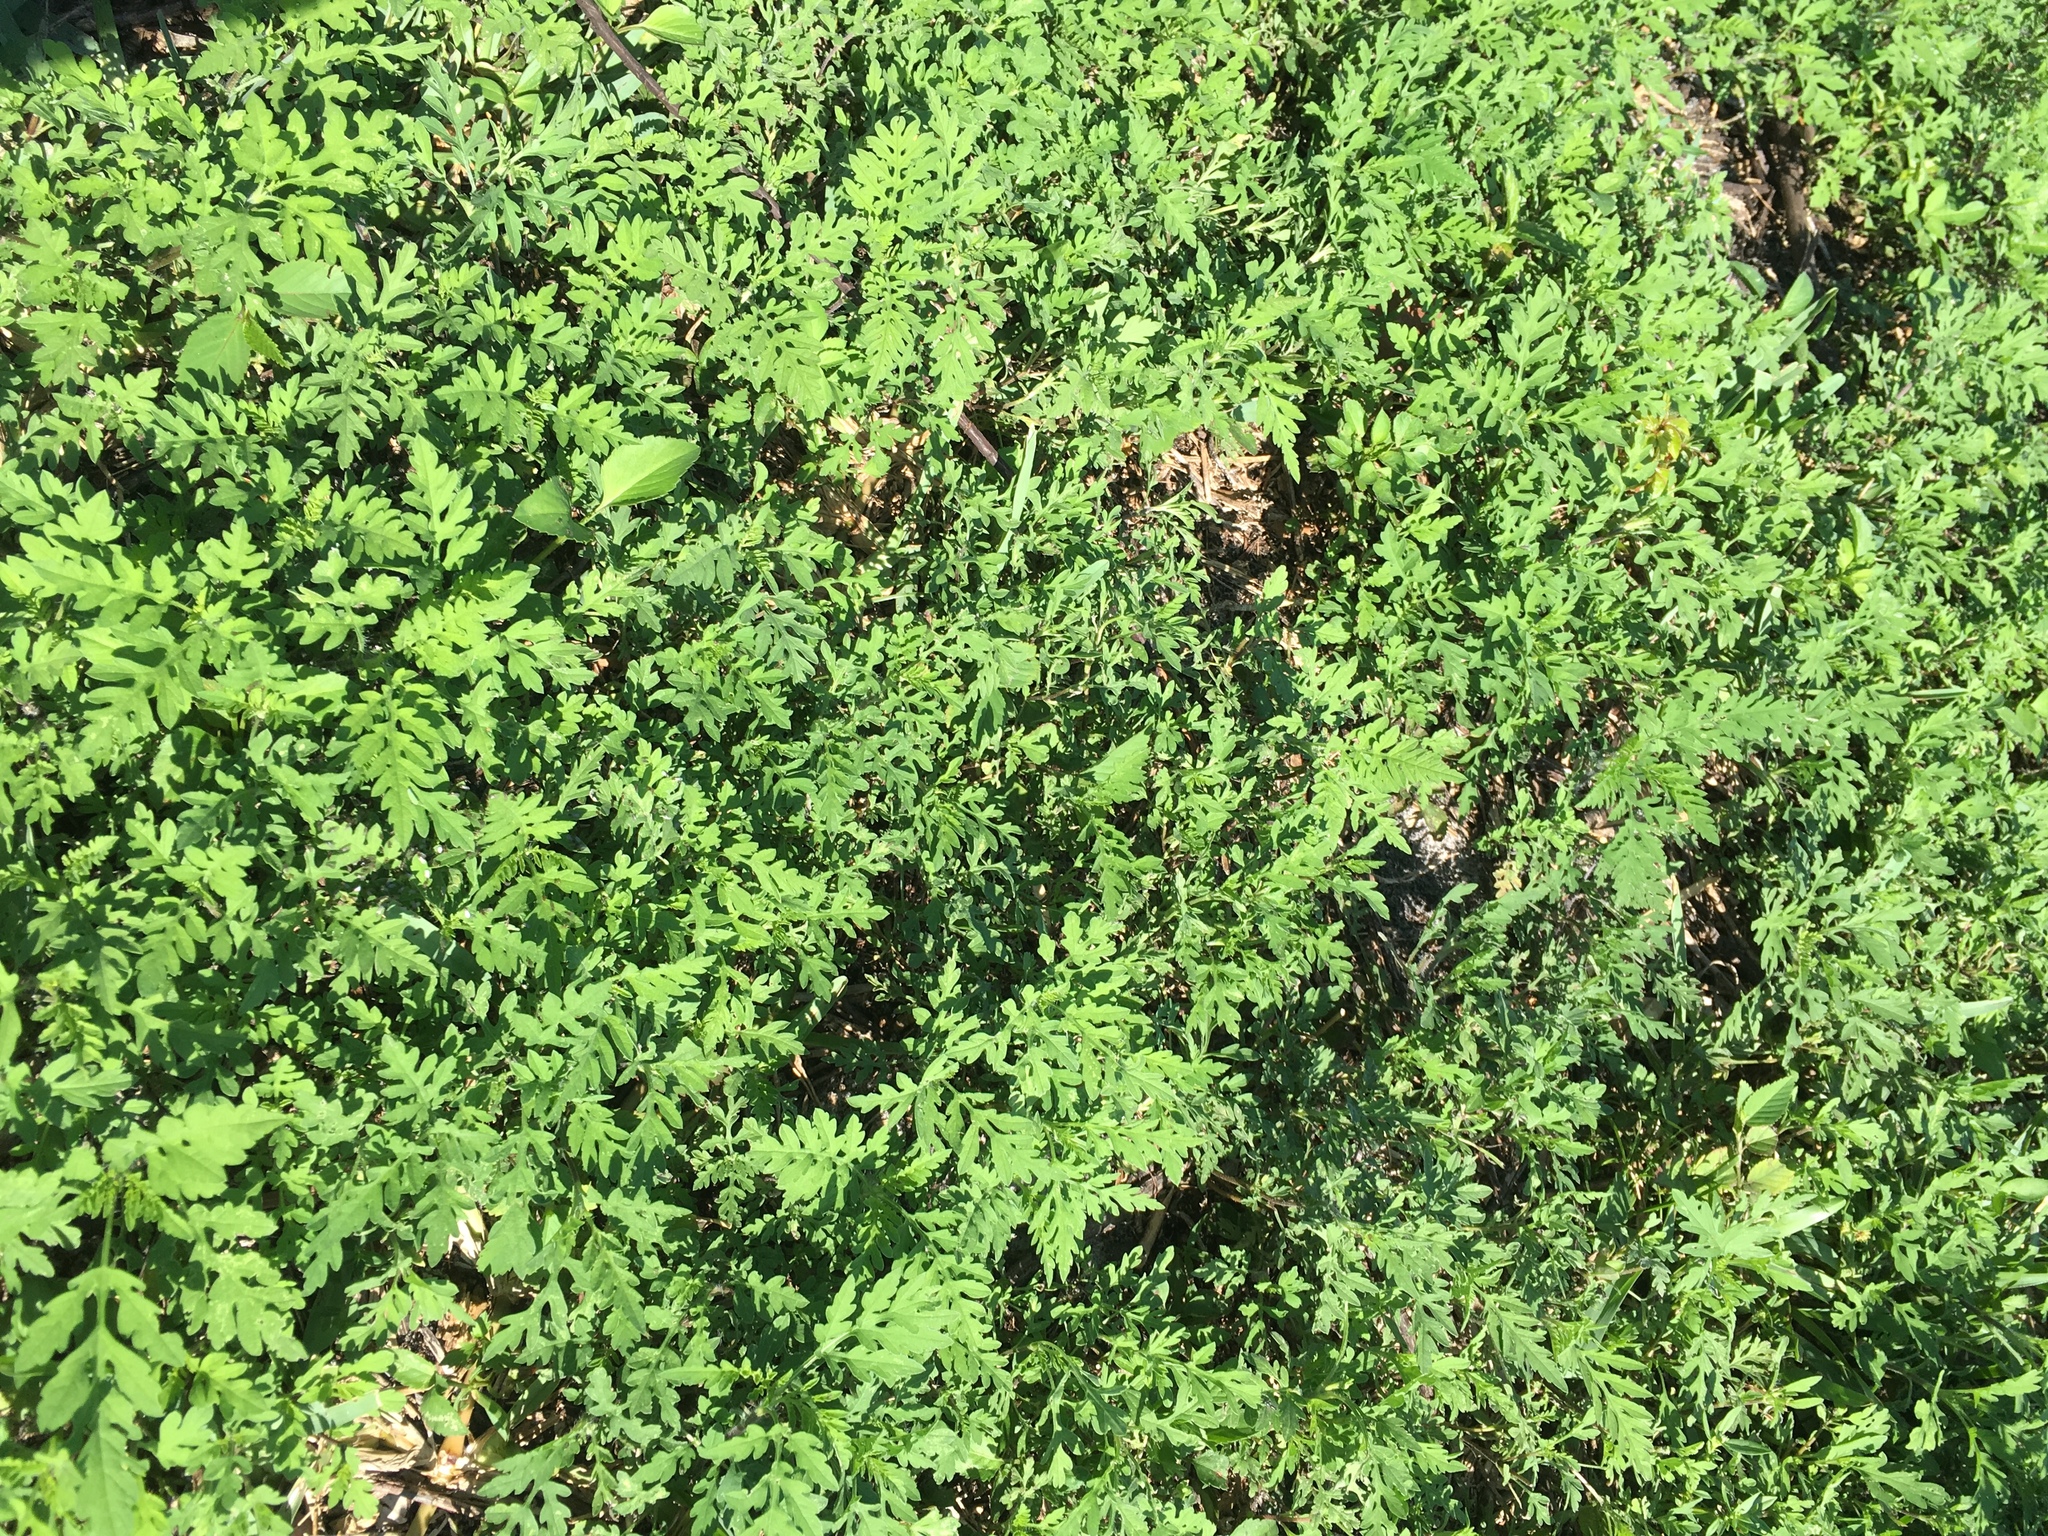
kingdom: Plantae
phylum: Tracheophyta
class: Magnoliopsida
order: Asterales
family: Asteraceae
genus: Ambrosia
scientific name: Ambrosia artemisiifolia
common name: Annual ragweed
